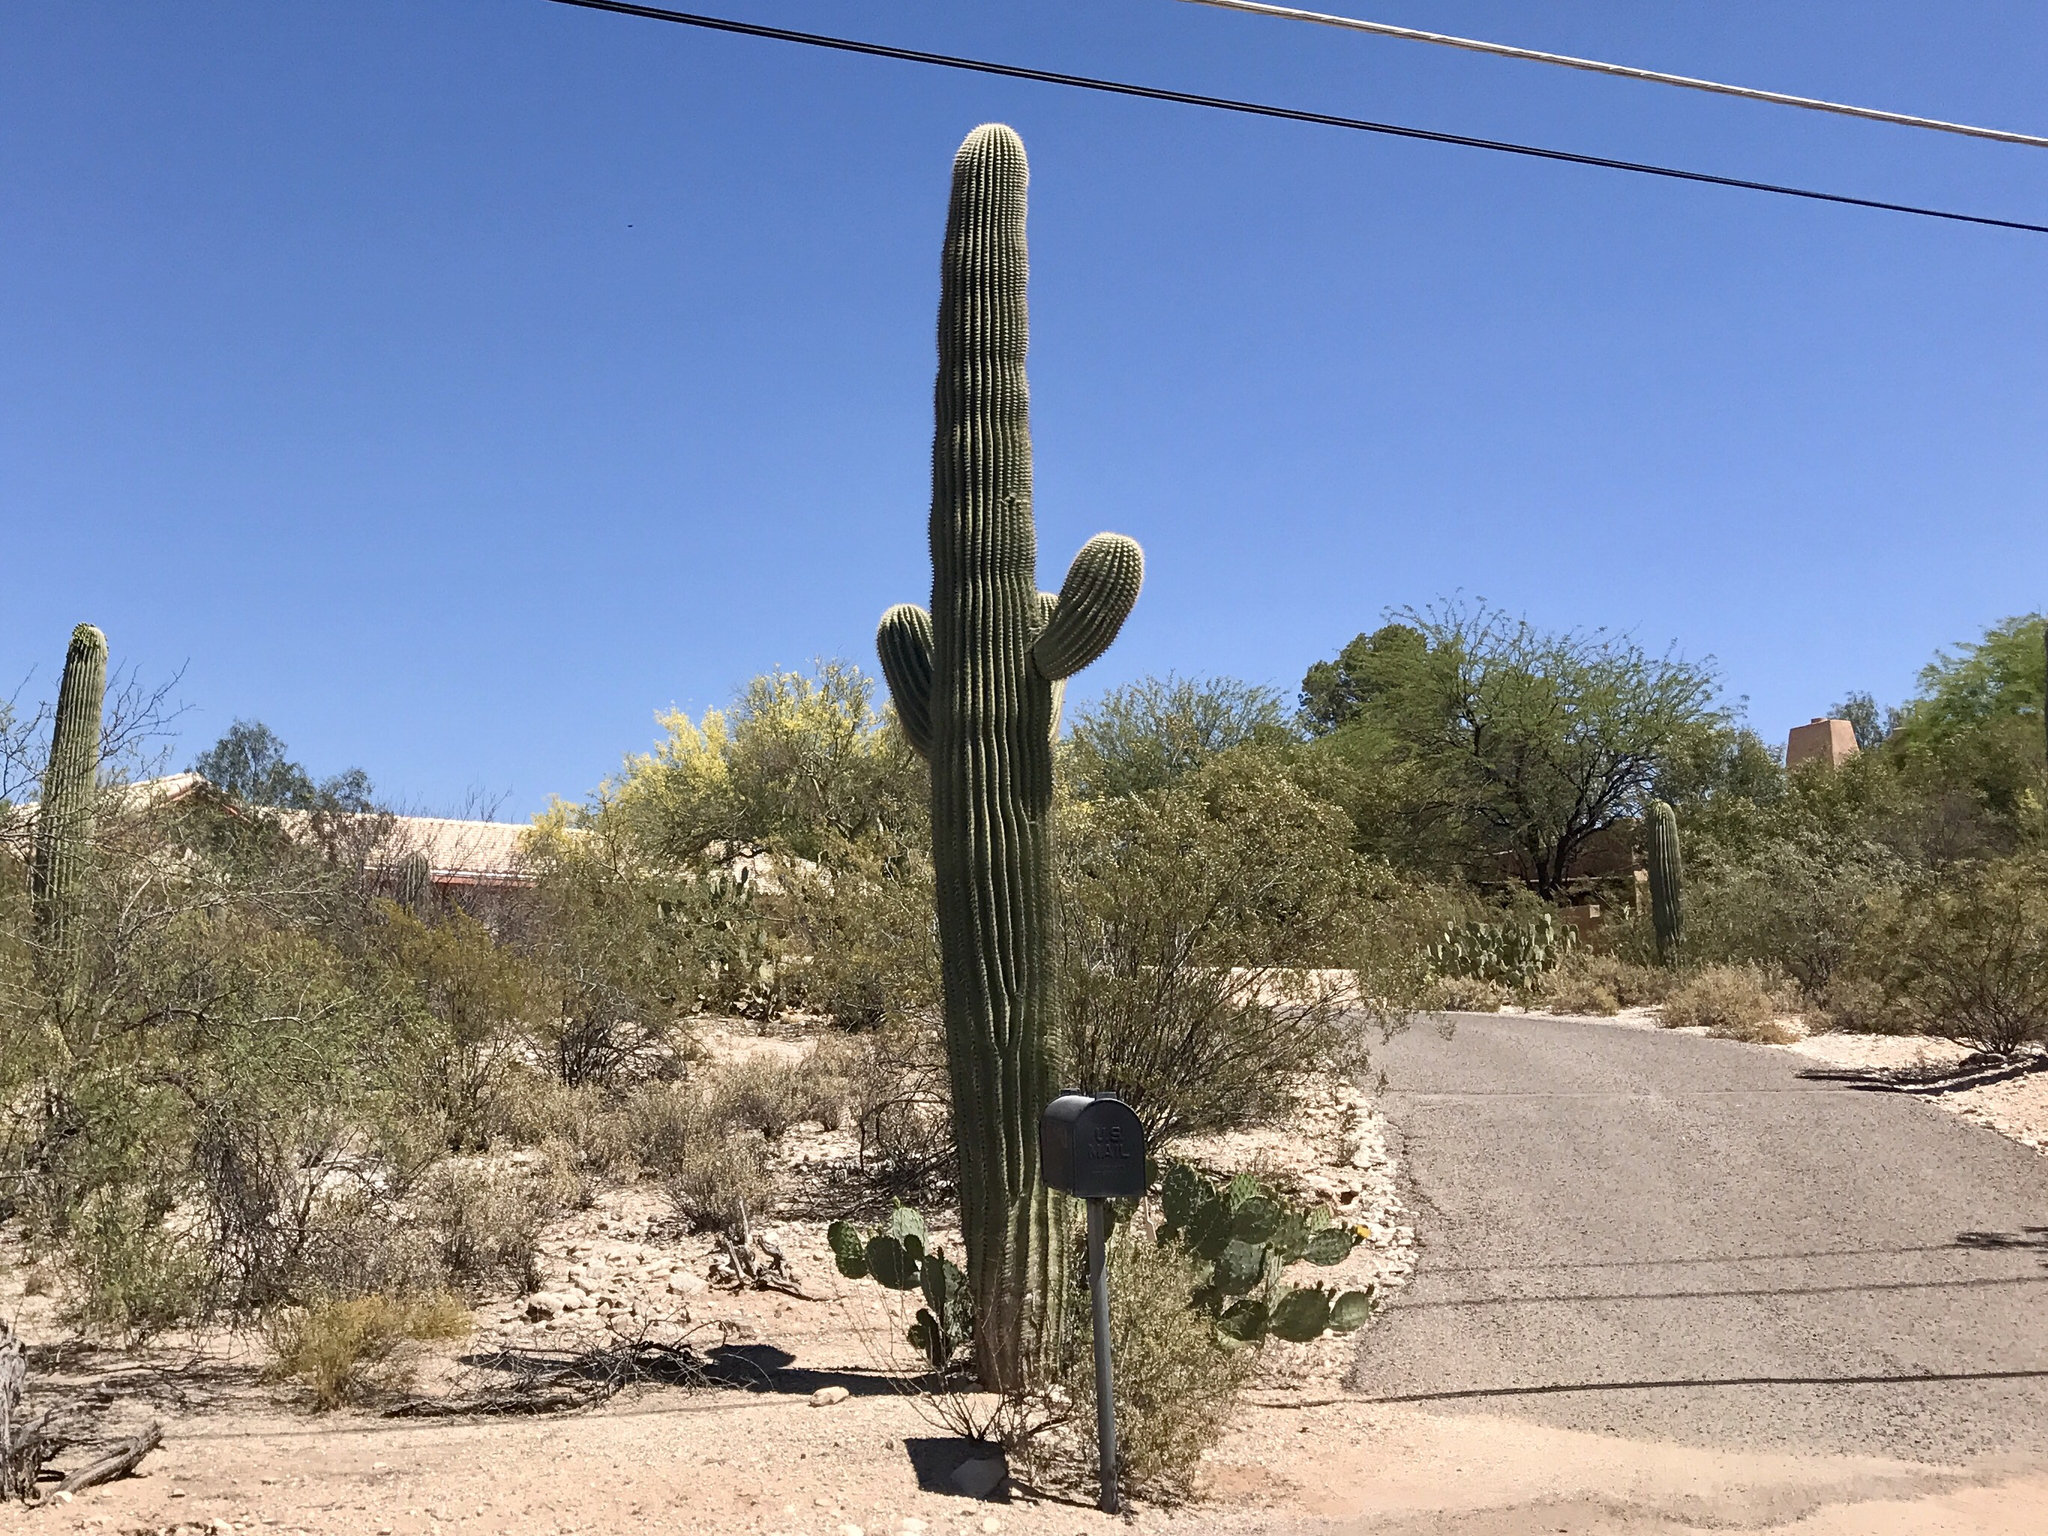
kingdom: Plantae
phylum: Tracheophyta
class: Magnoliopsida
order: Caryophyllales
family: Cactaceae
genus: Carnegiea
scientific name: Carnegiea gigantea
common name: Saguaro
